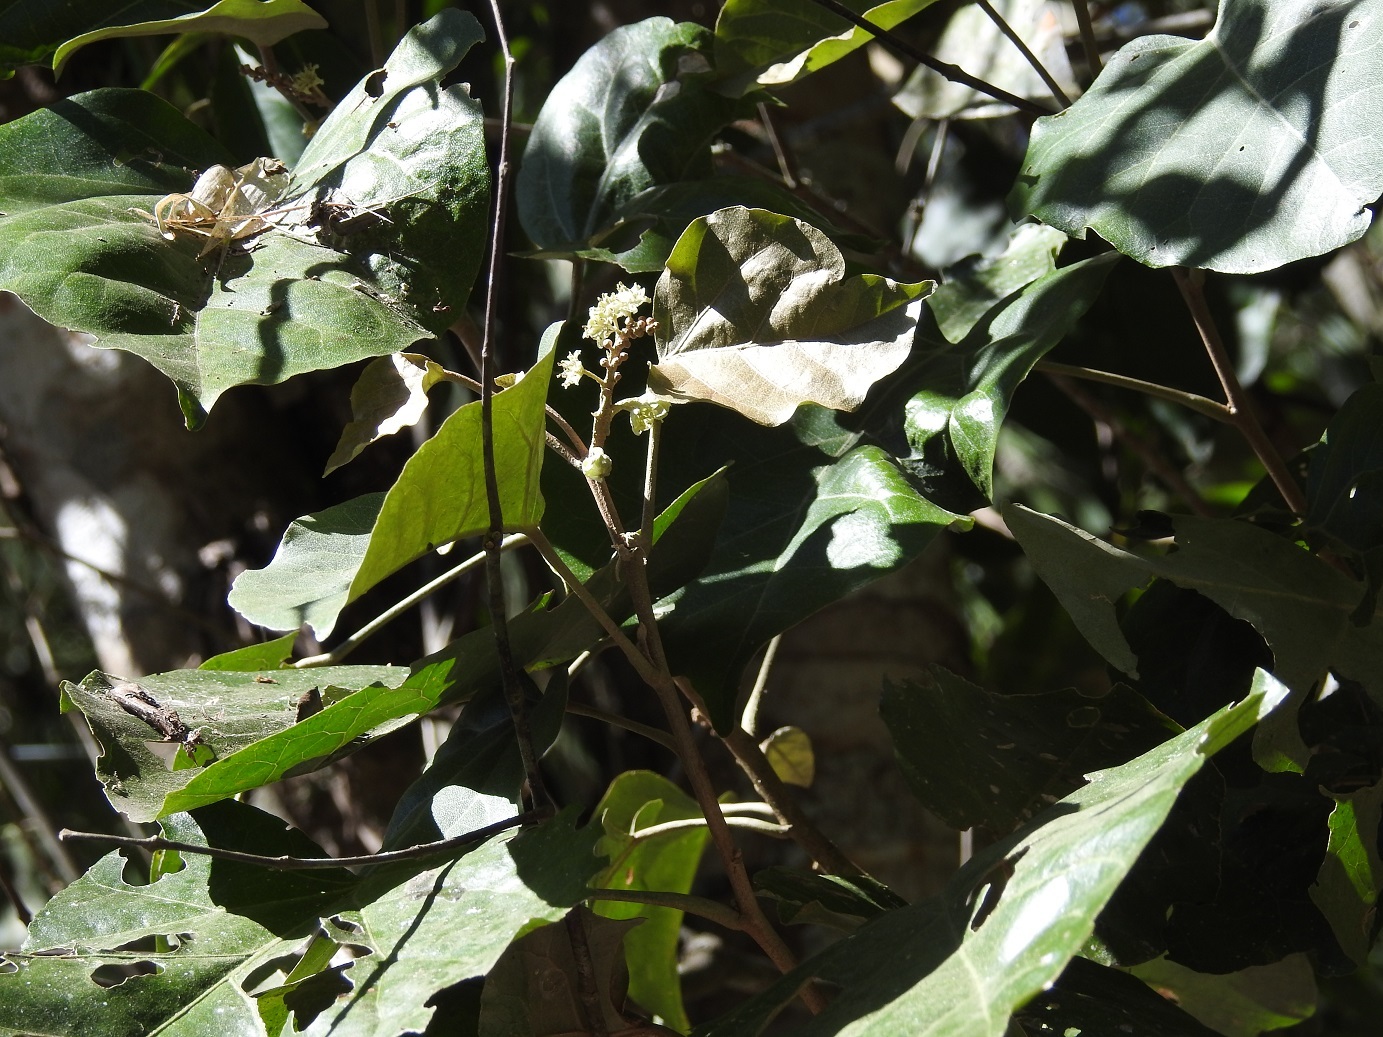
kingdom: Plantae
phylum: Tracheophyta
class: Magnoliopsida
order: Malpighiales
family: Euphorbiaceae
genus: Croton
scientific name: Croton guatemalensis
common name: Copalchi
